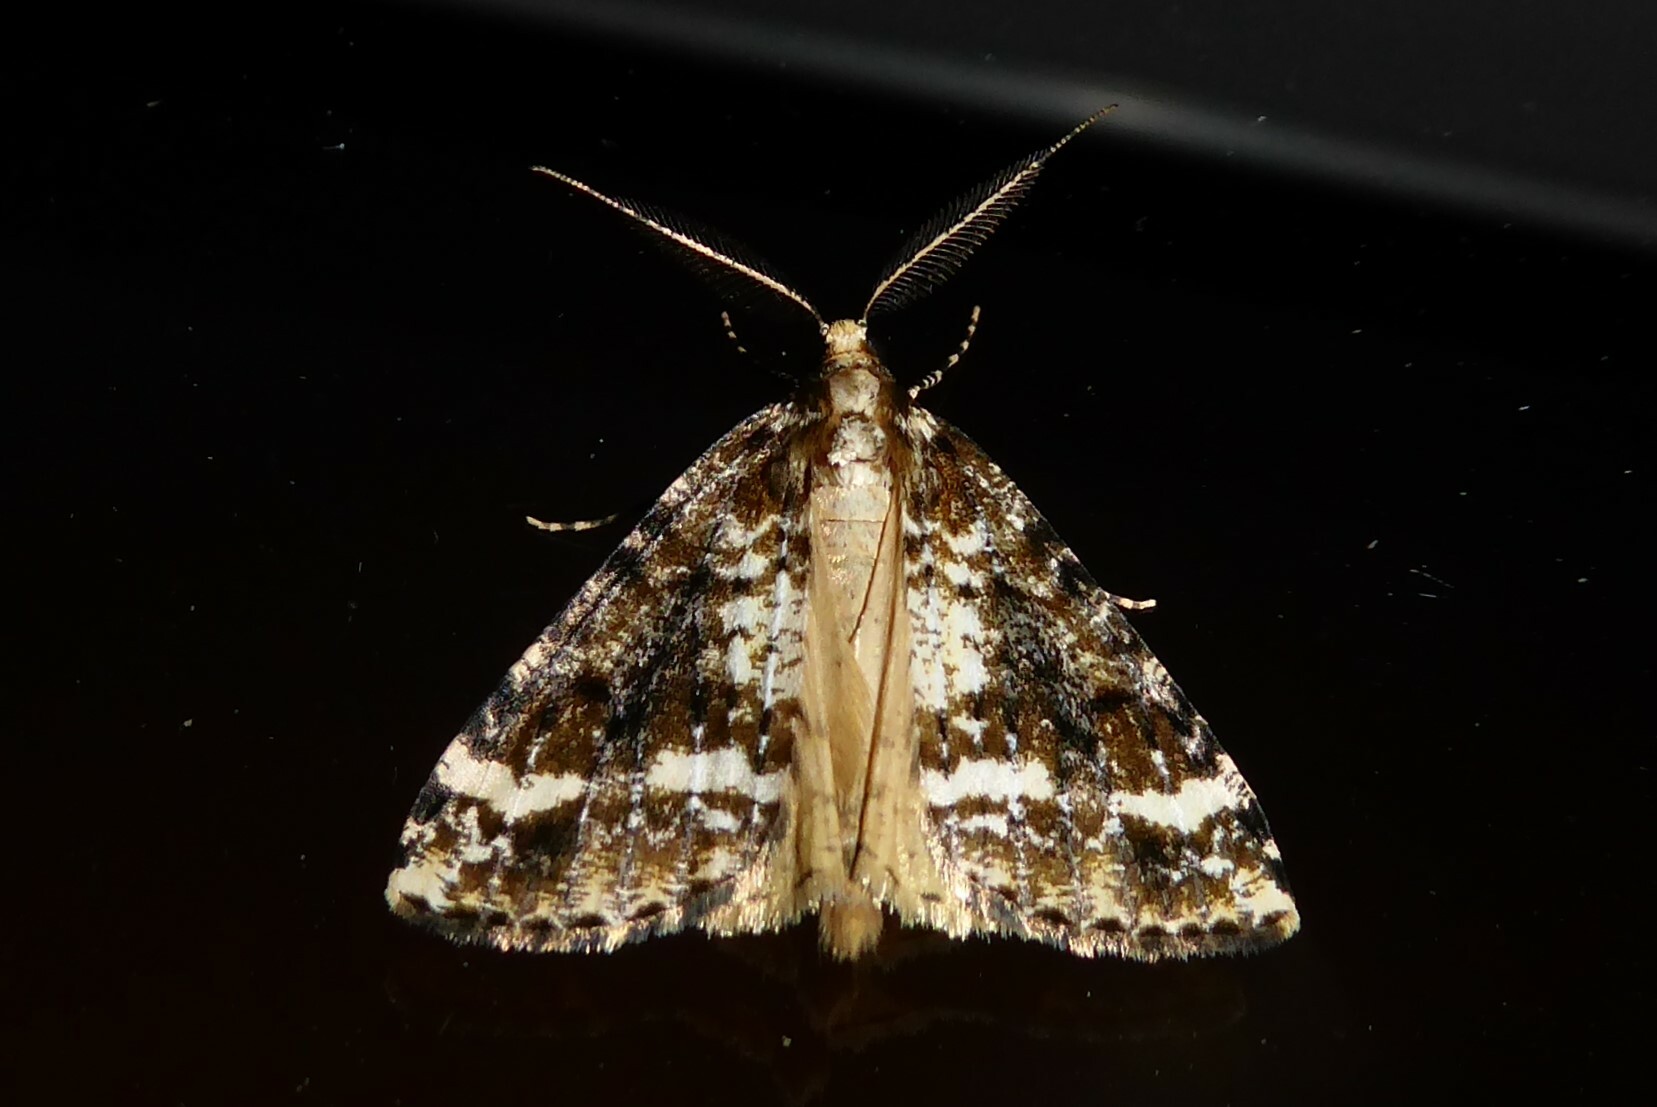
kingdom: Animalia
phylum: Arthropoda
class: Insecta
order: Lepidoptera
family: Geometridae
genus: Pseudocoremia
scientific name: Pseudocoremia leucelaea
